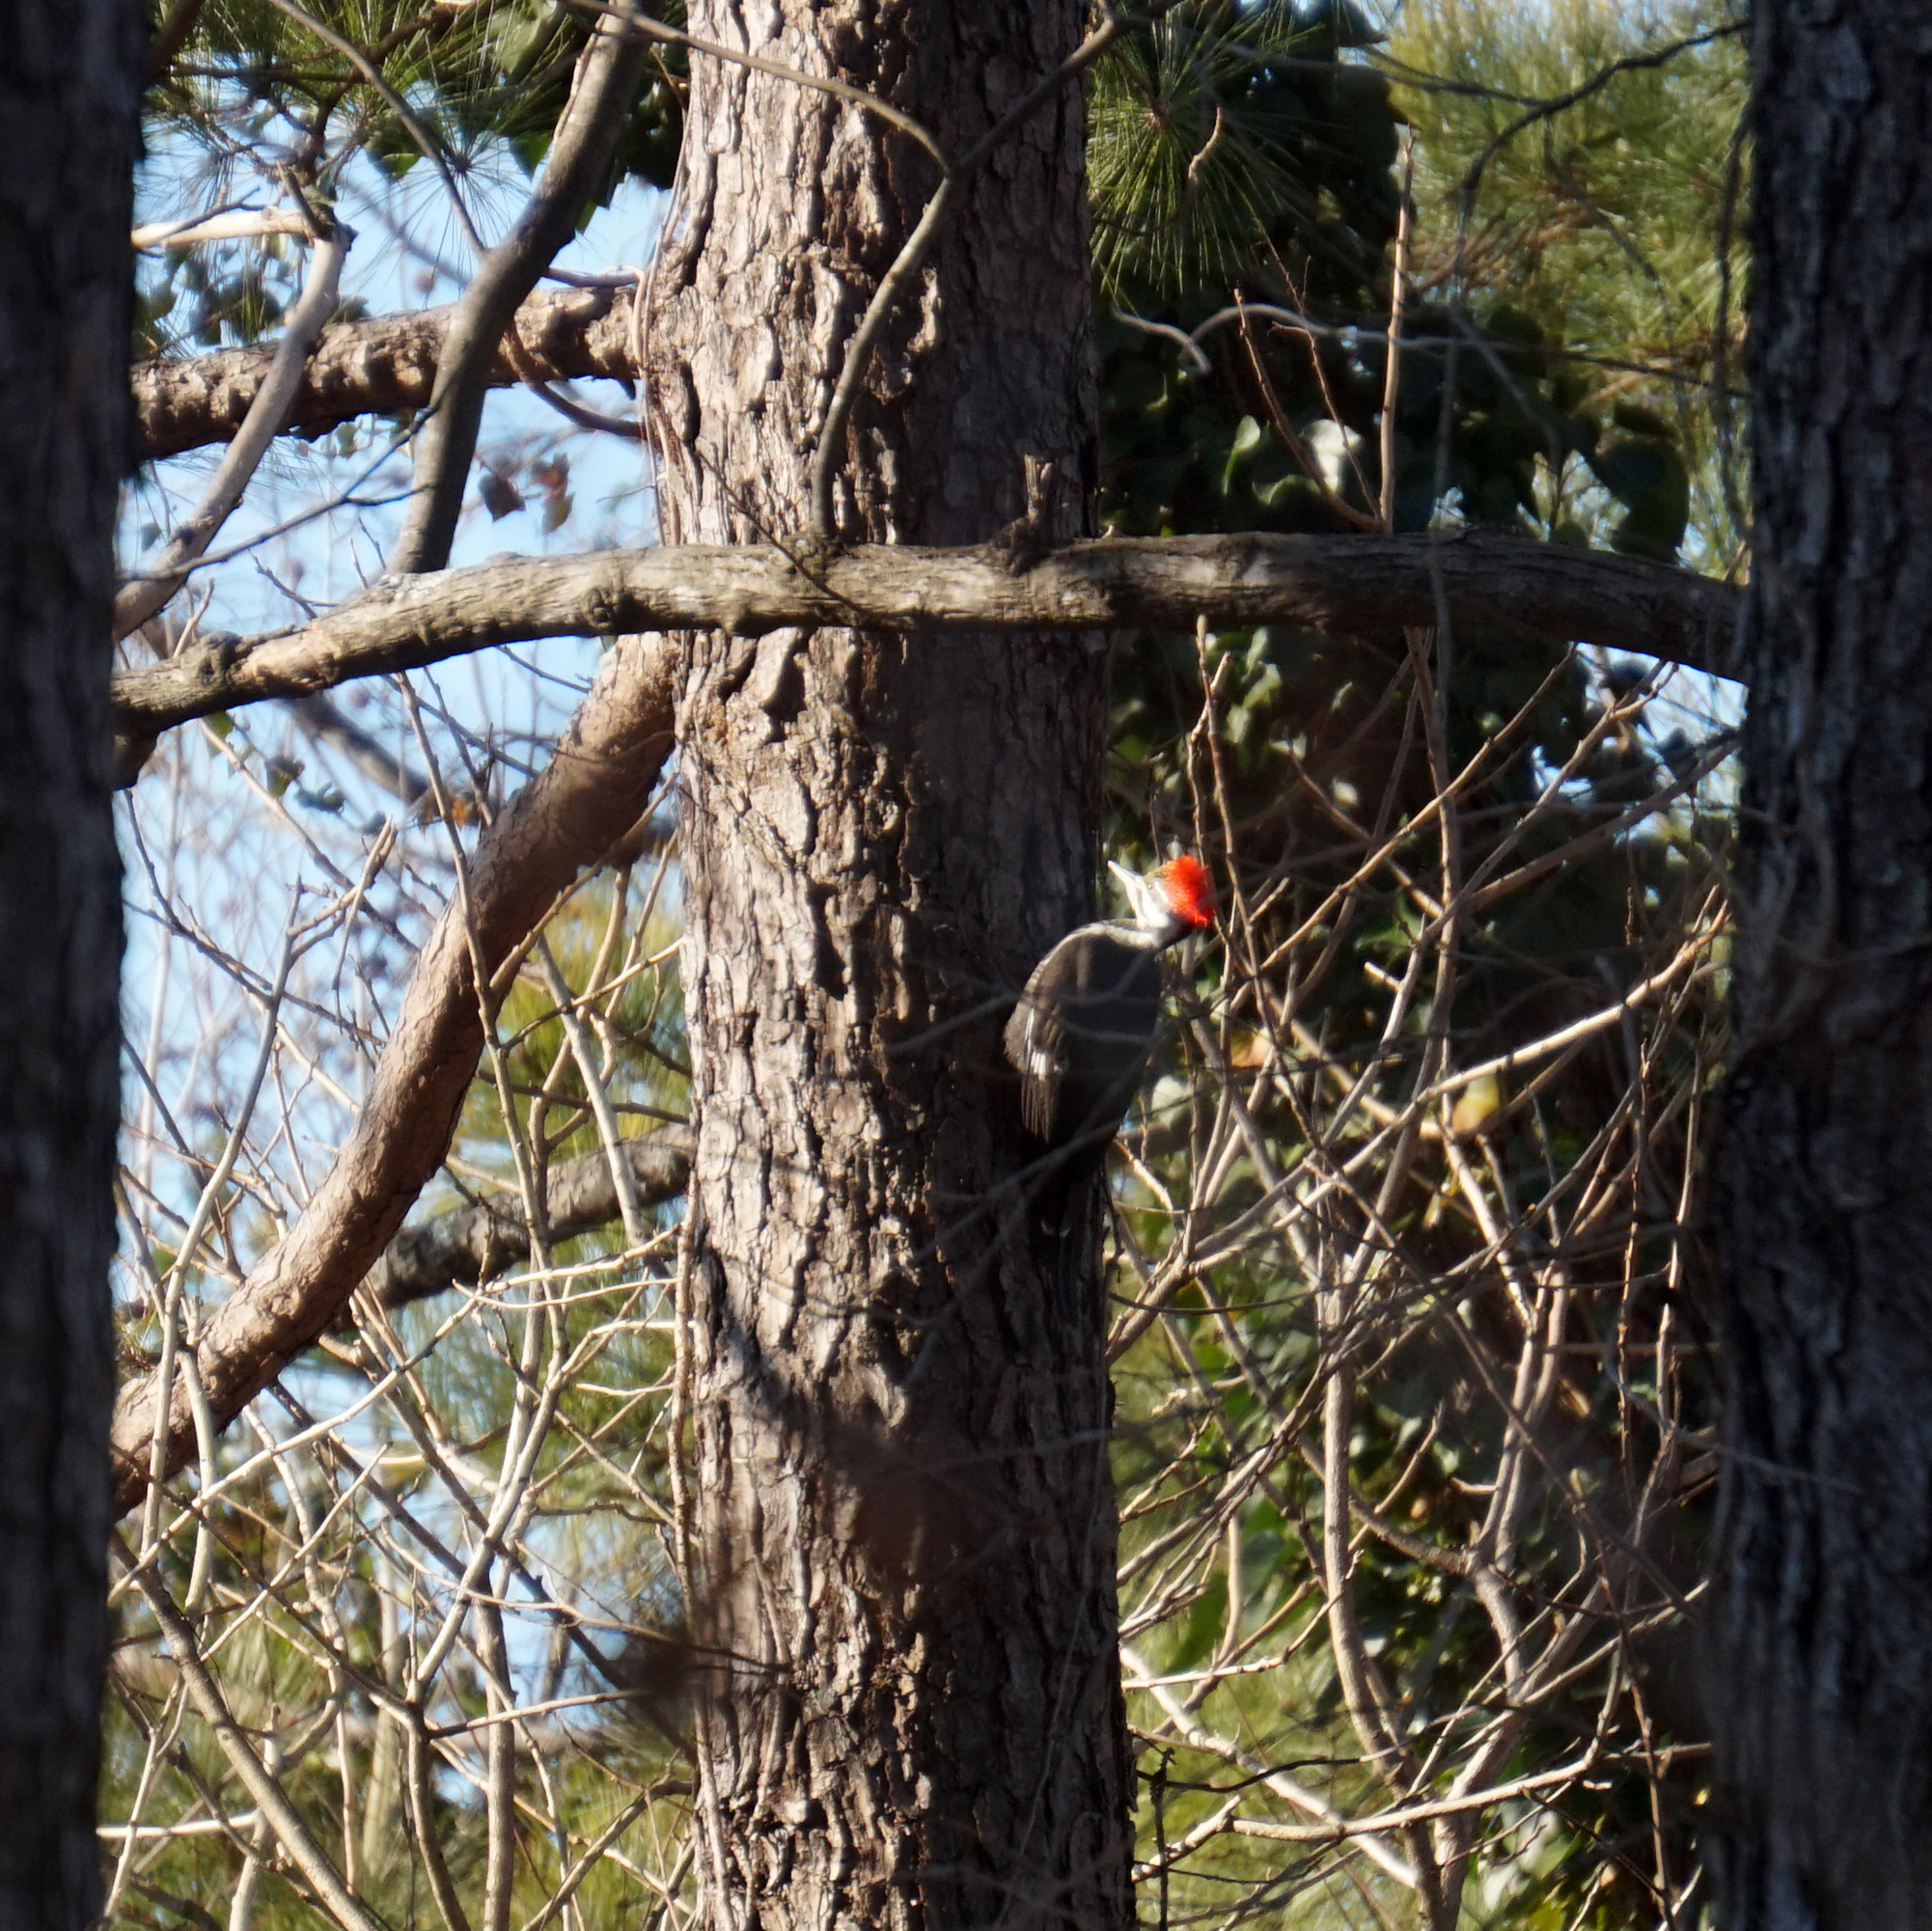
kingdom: Animalia
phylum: Chordata
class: Aves
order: Piciformes
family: Picidae
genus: Dryocopus
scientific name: Dryocopus pileatus
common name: Pileated woodpecker
